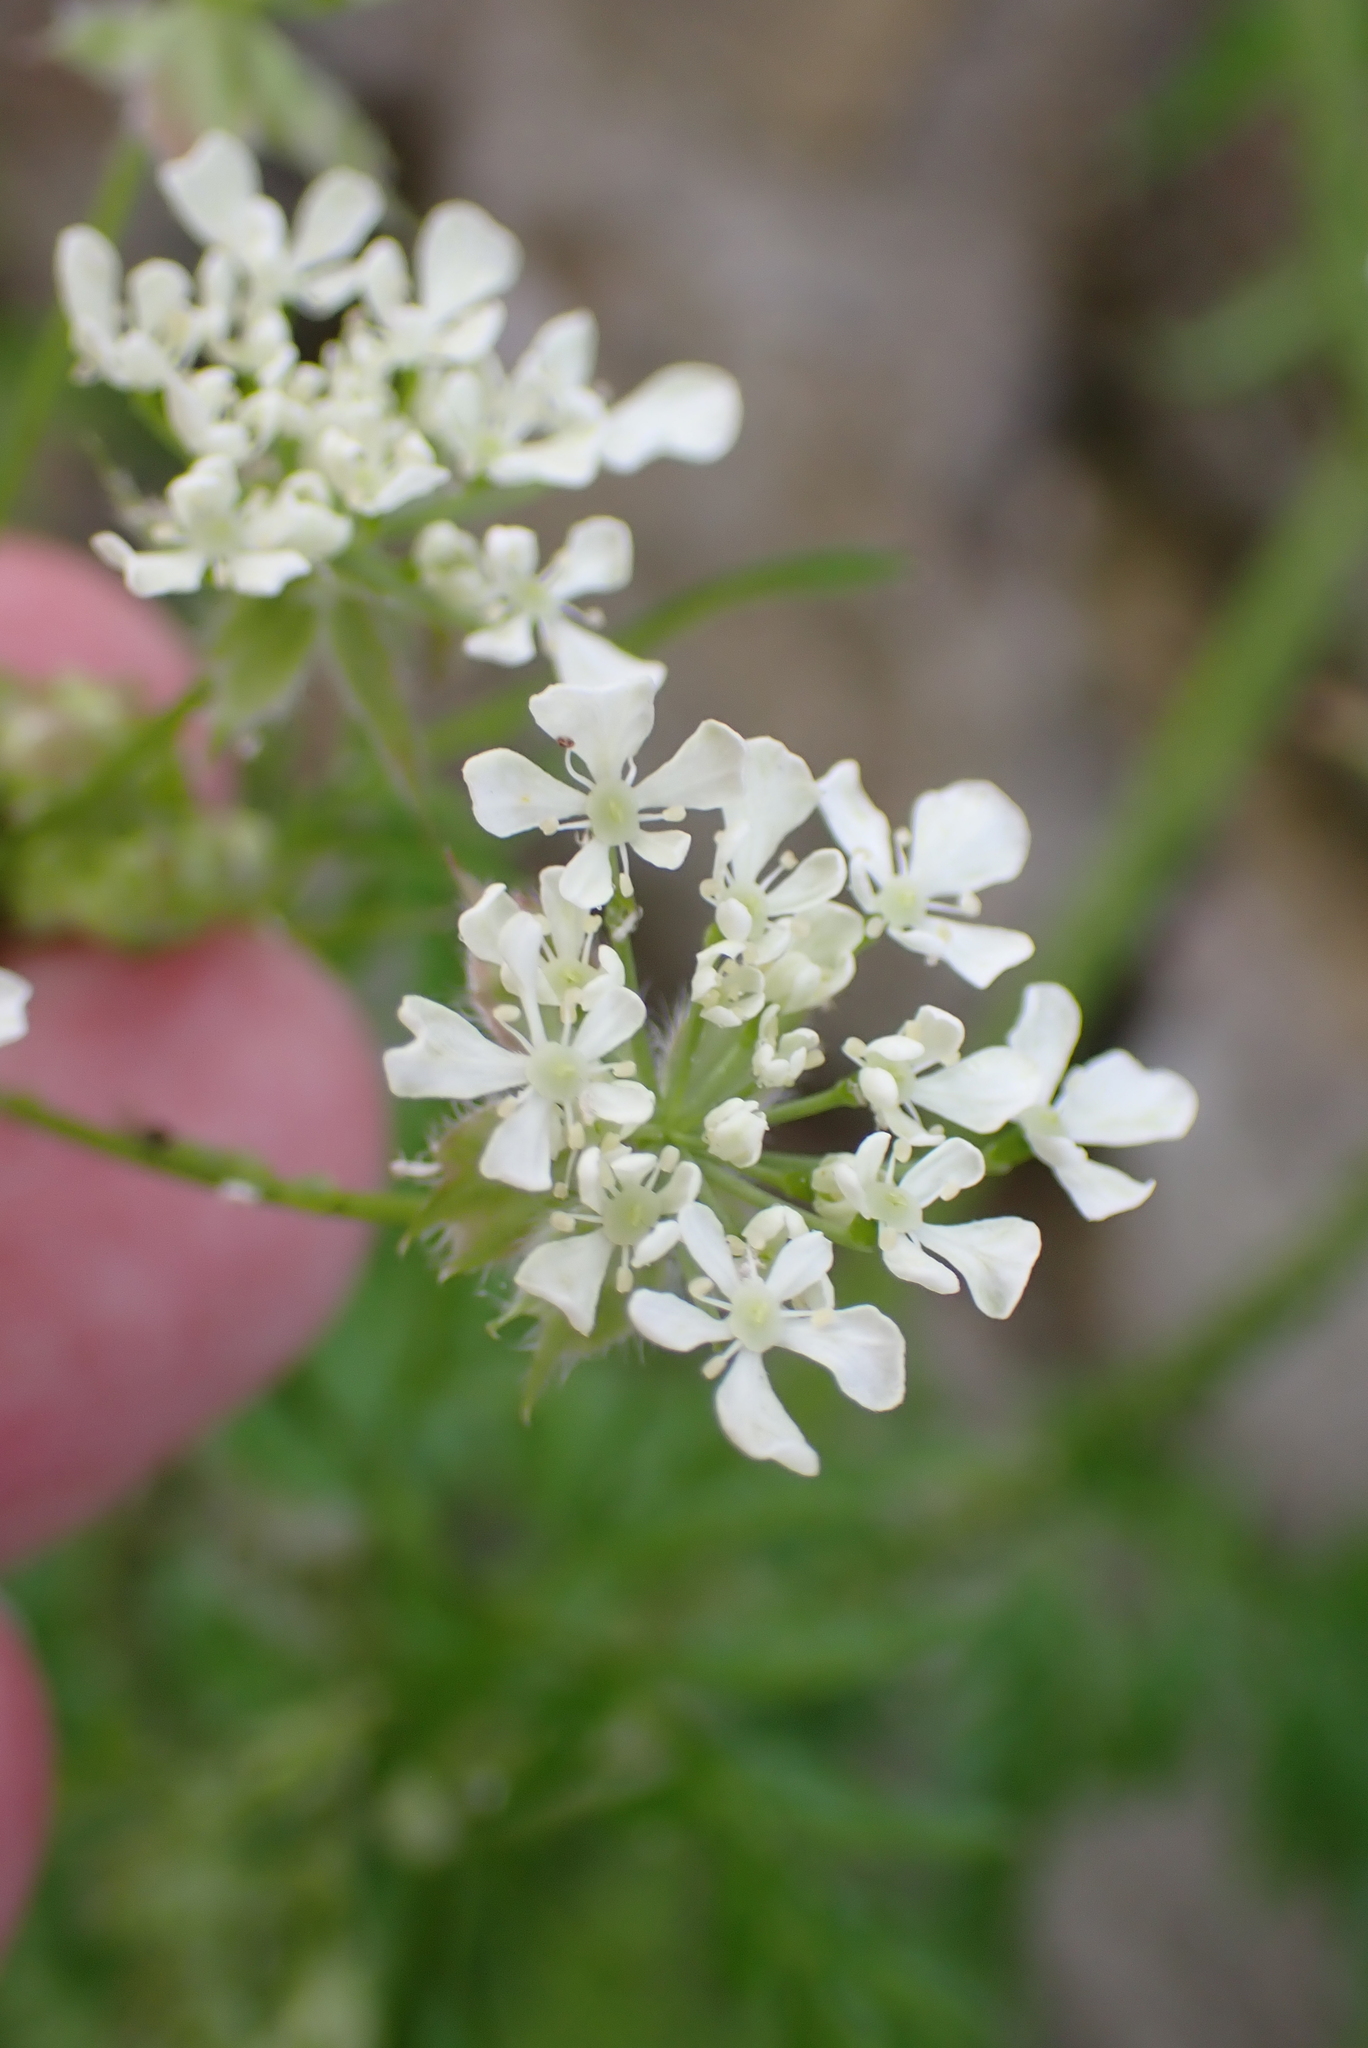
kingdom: Plantae
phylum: Tracheophyta
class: Magnoliopsida
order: Apiales
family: Apiaceae
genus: Anthriscus
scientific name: Anthriscus sylvestris
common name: Cow parsley
